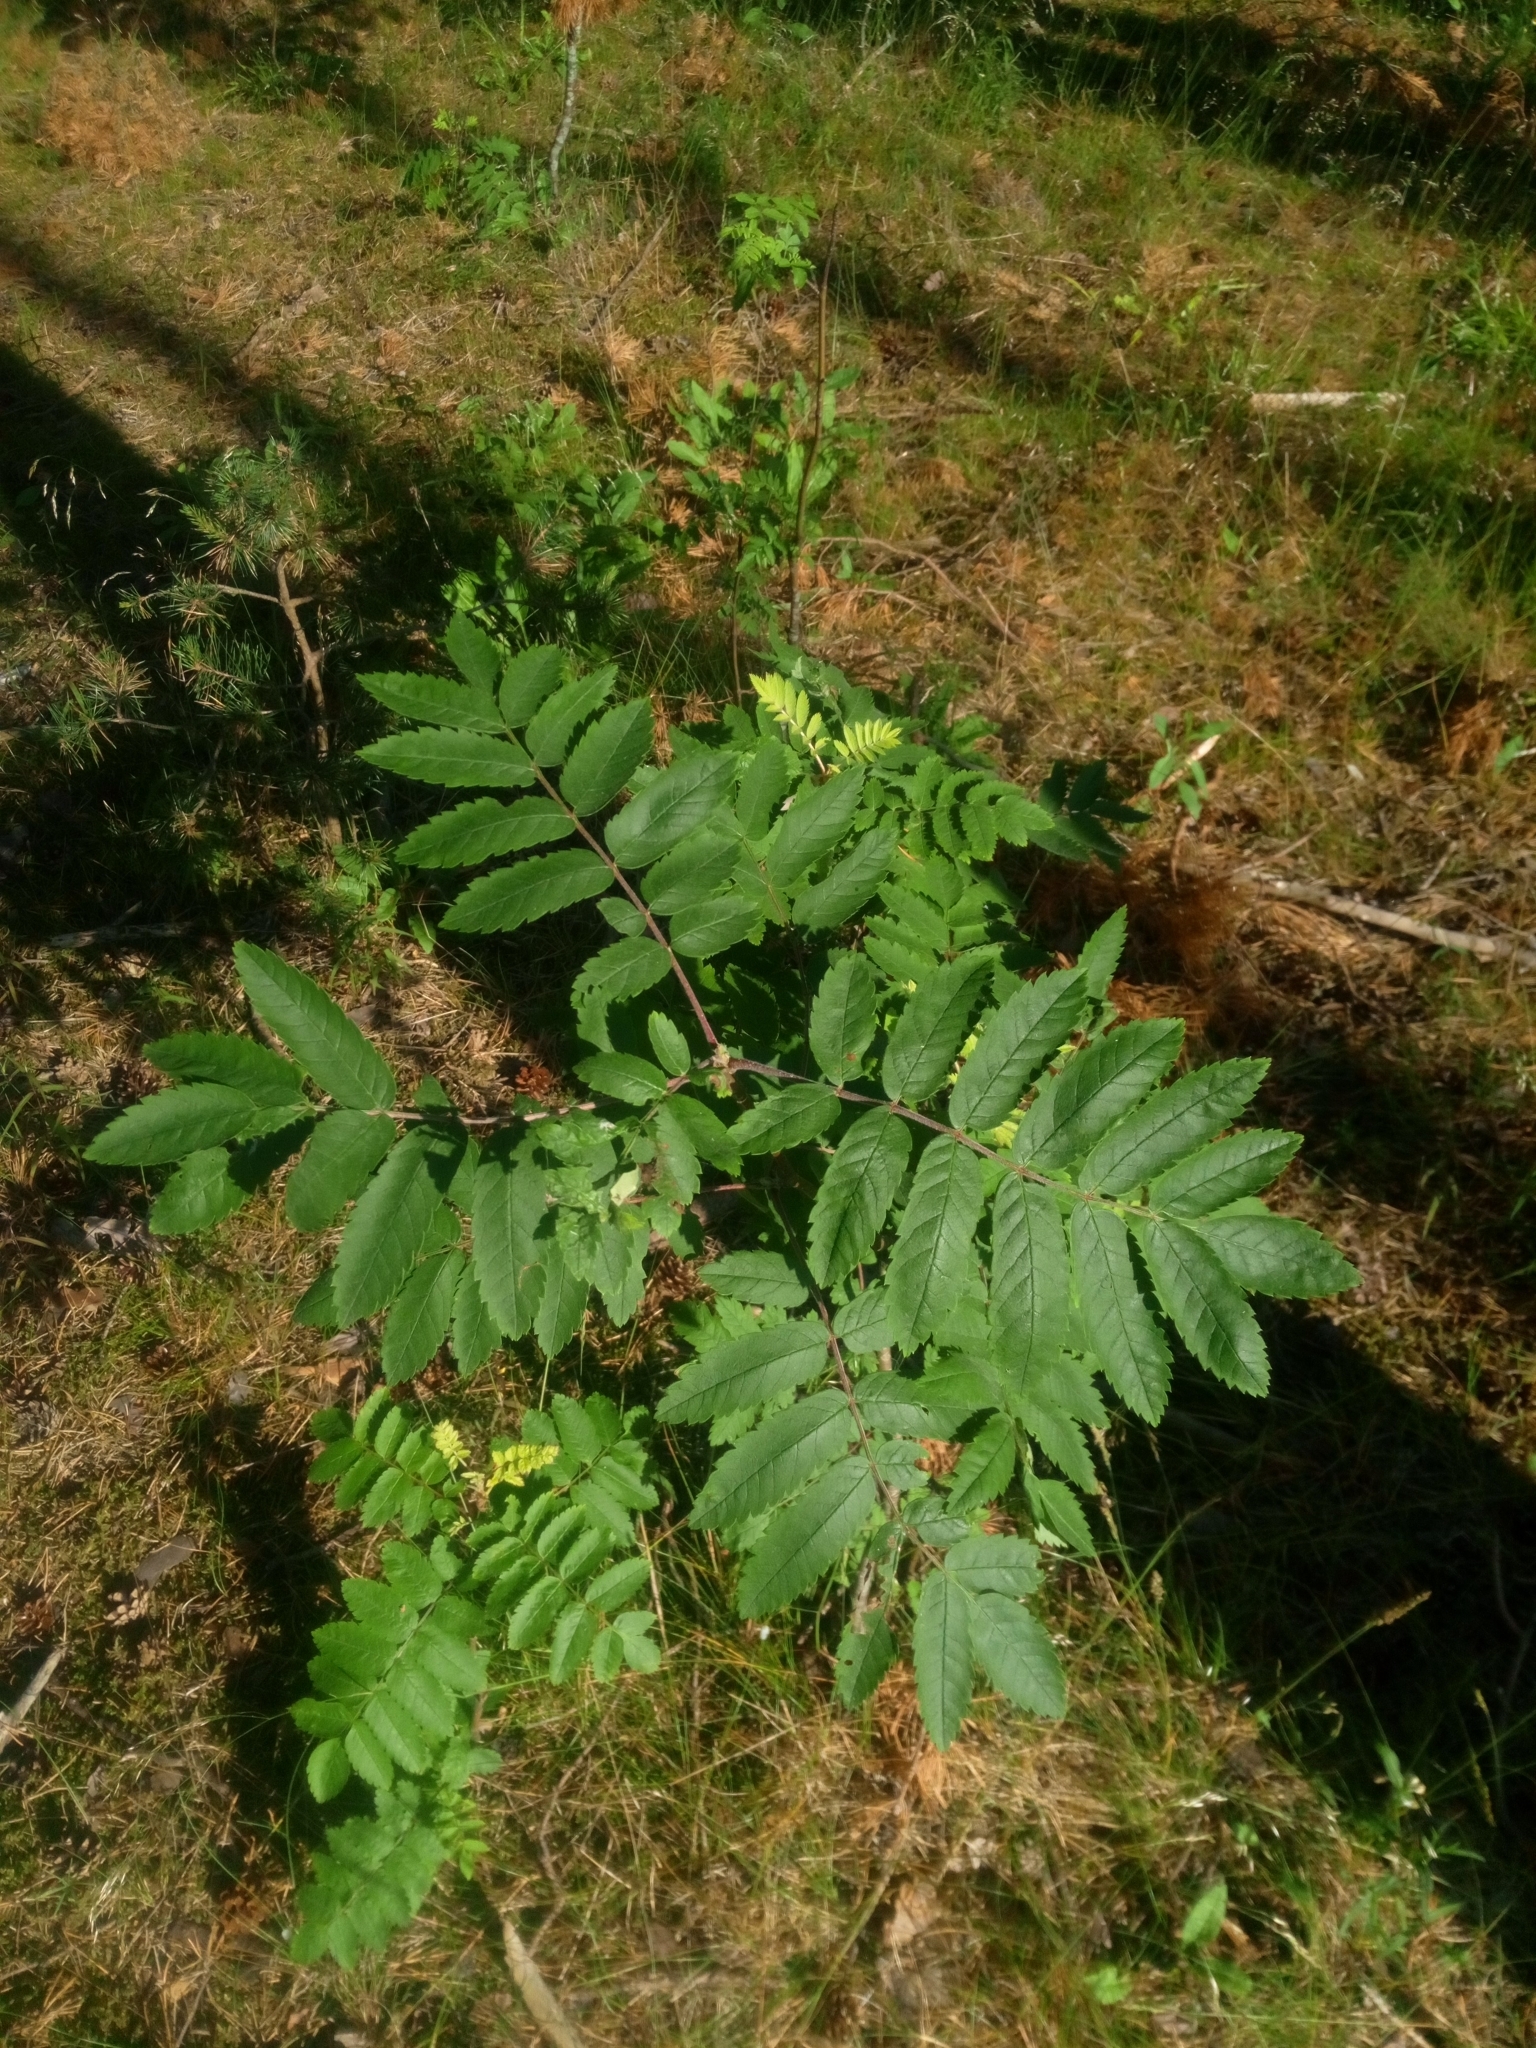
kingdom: Plantae
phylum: Tracheophyta
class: Magnoliopsida
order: Rosales
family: Rosaceae
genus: Sorbus
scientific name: Sorbus aucuparia
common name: Rowan
